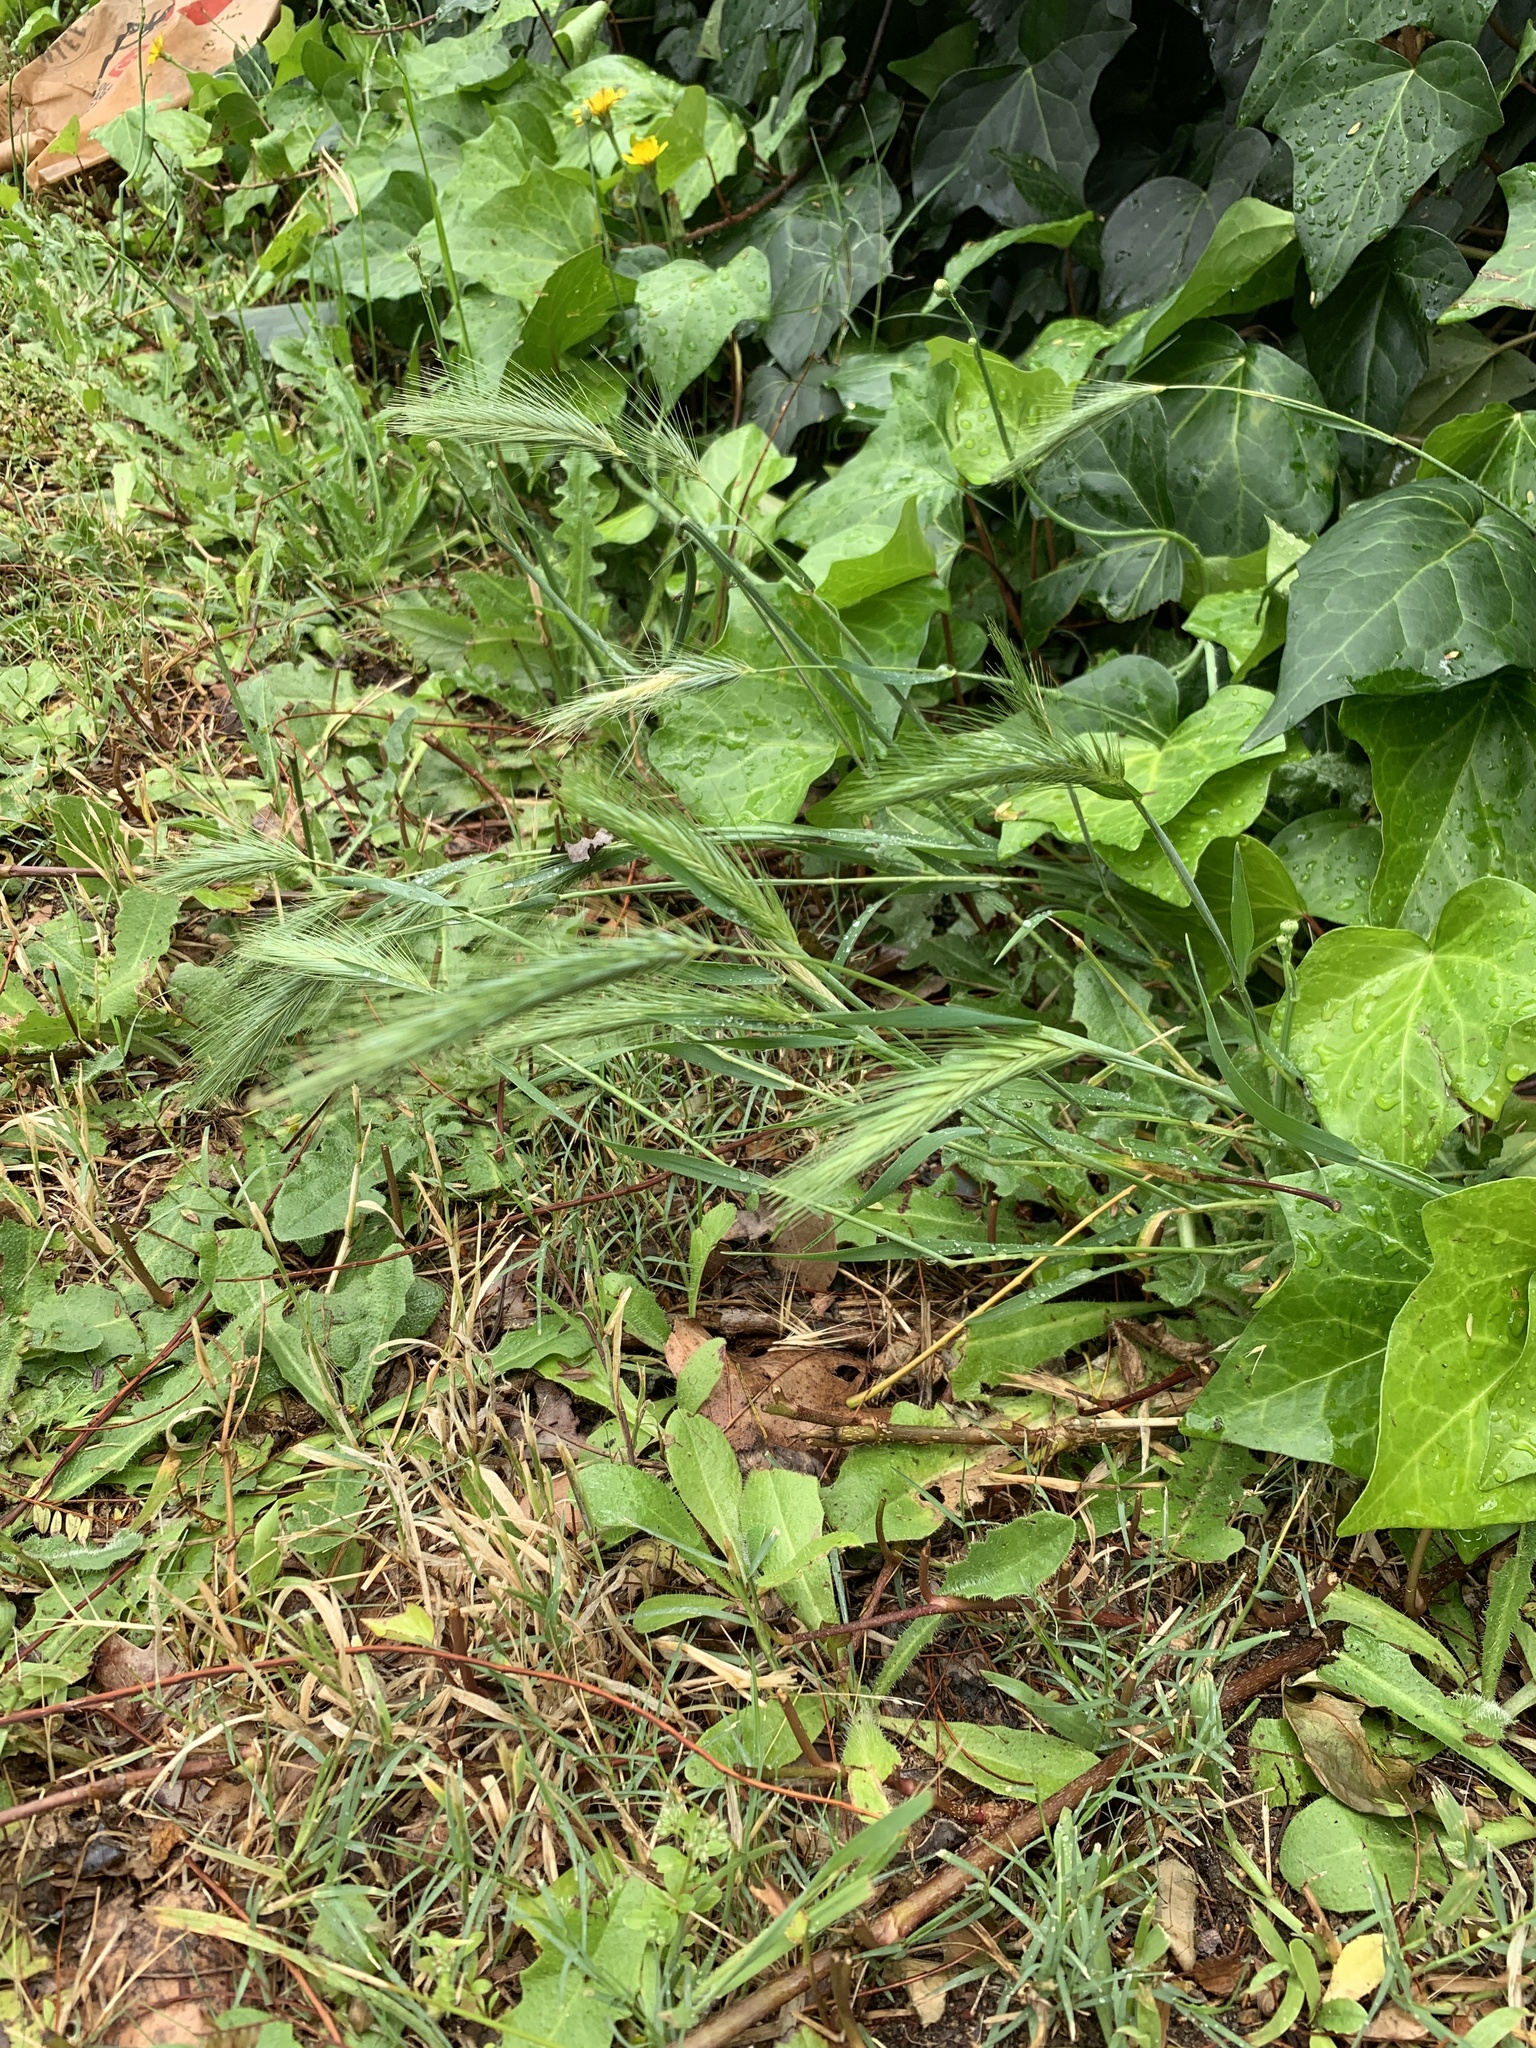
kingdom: Plantae
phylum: Tracheophyta
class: Liliopsida
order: Poales
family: Poaceae
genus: Hordeum
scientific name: Hordeum murinum
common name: Wall barley
